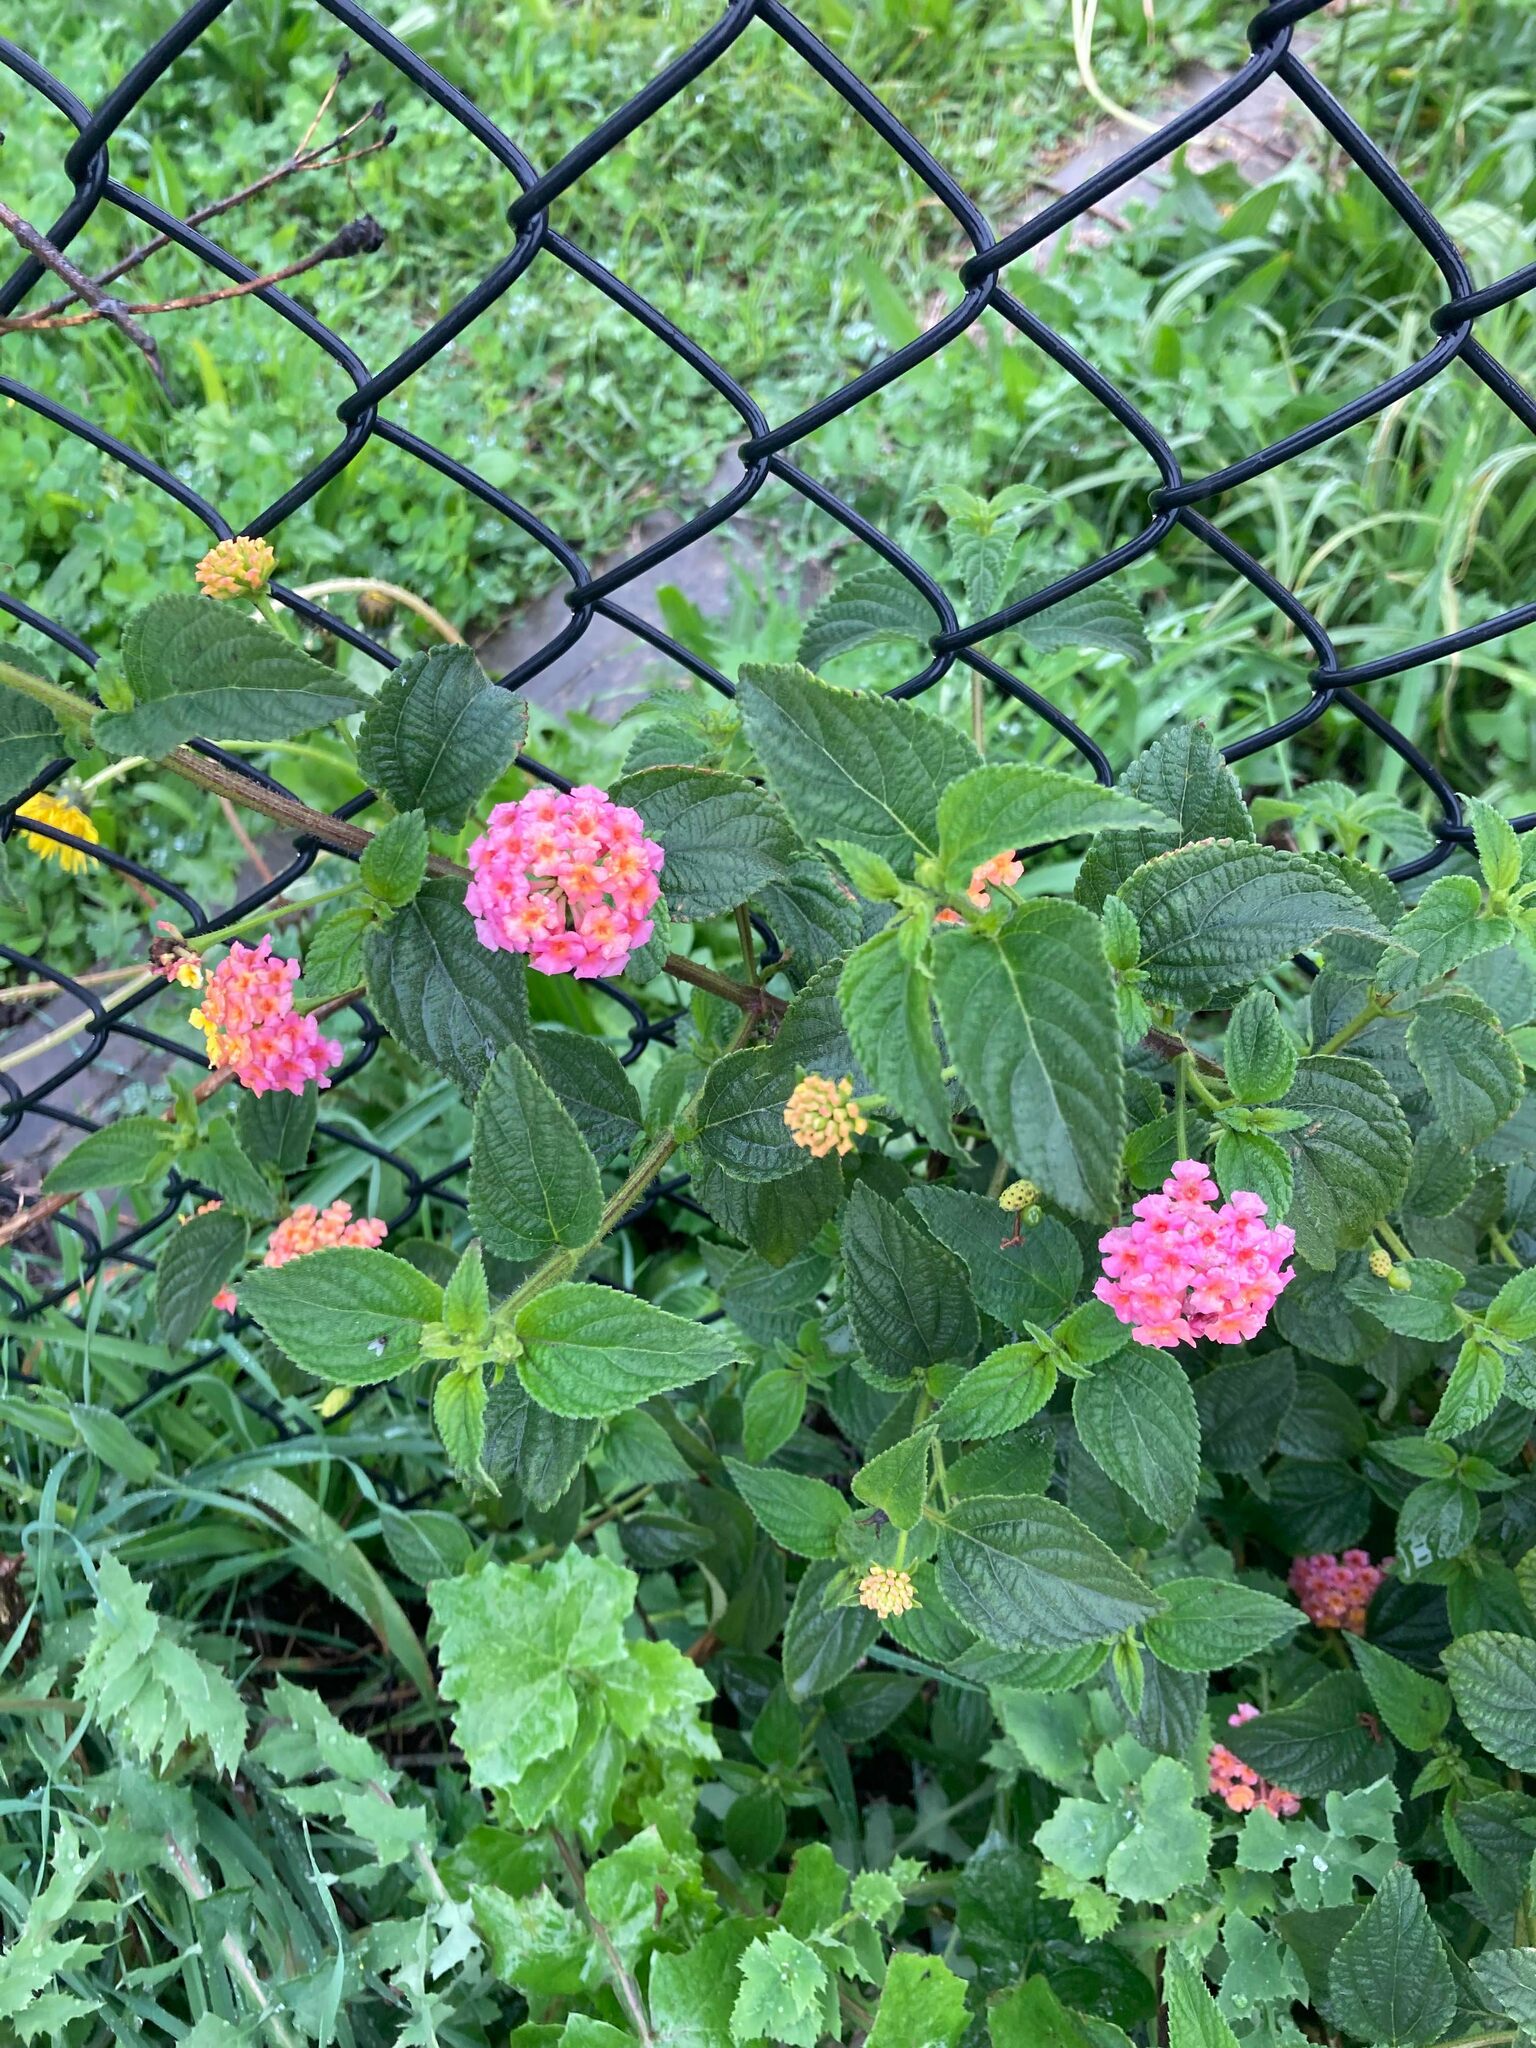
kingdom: Plantae
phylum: Tracheophyta
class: Magnoliopsida
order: Lamiales
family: Verbenaceae
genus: Lantana
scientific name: Lantana camara
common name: Lantana
